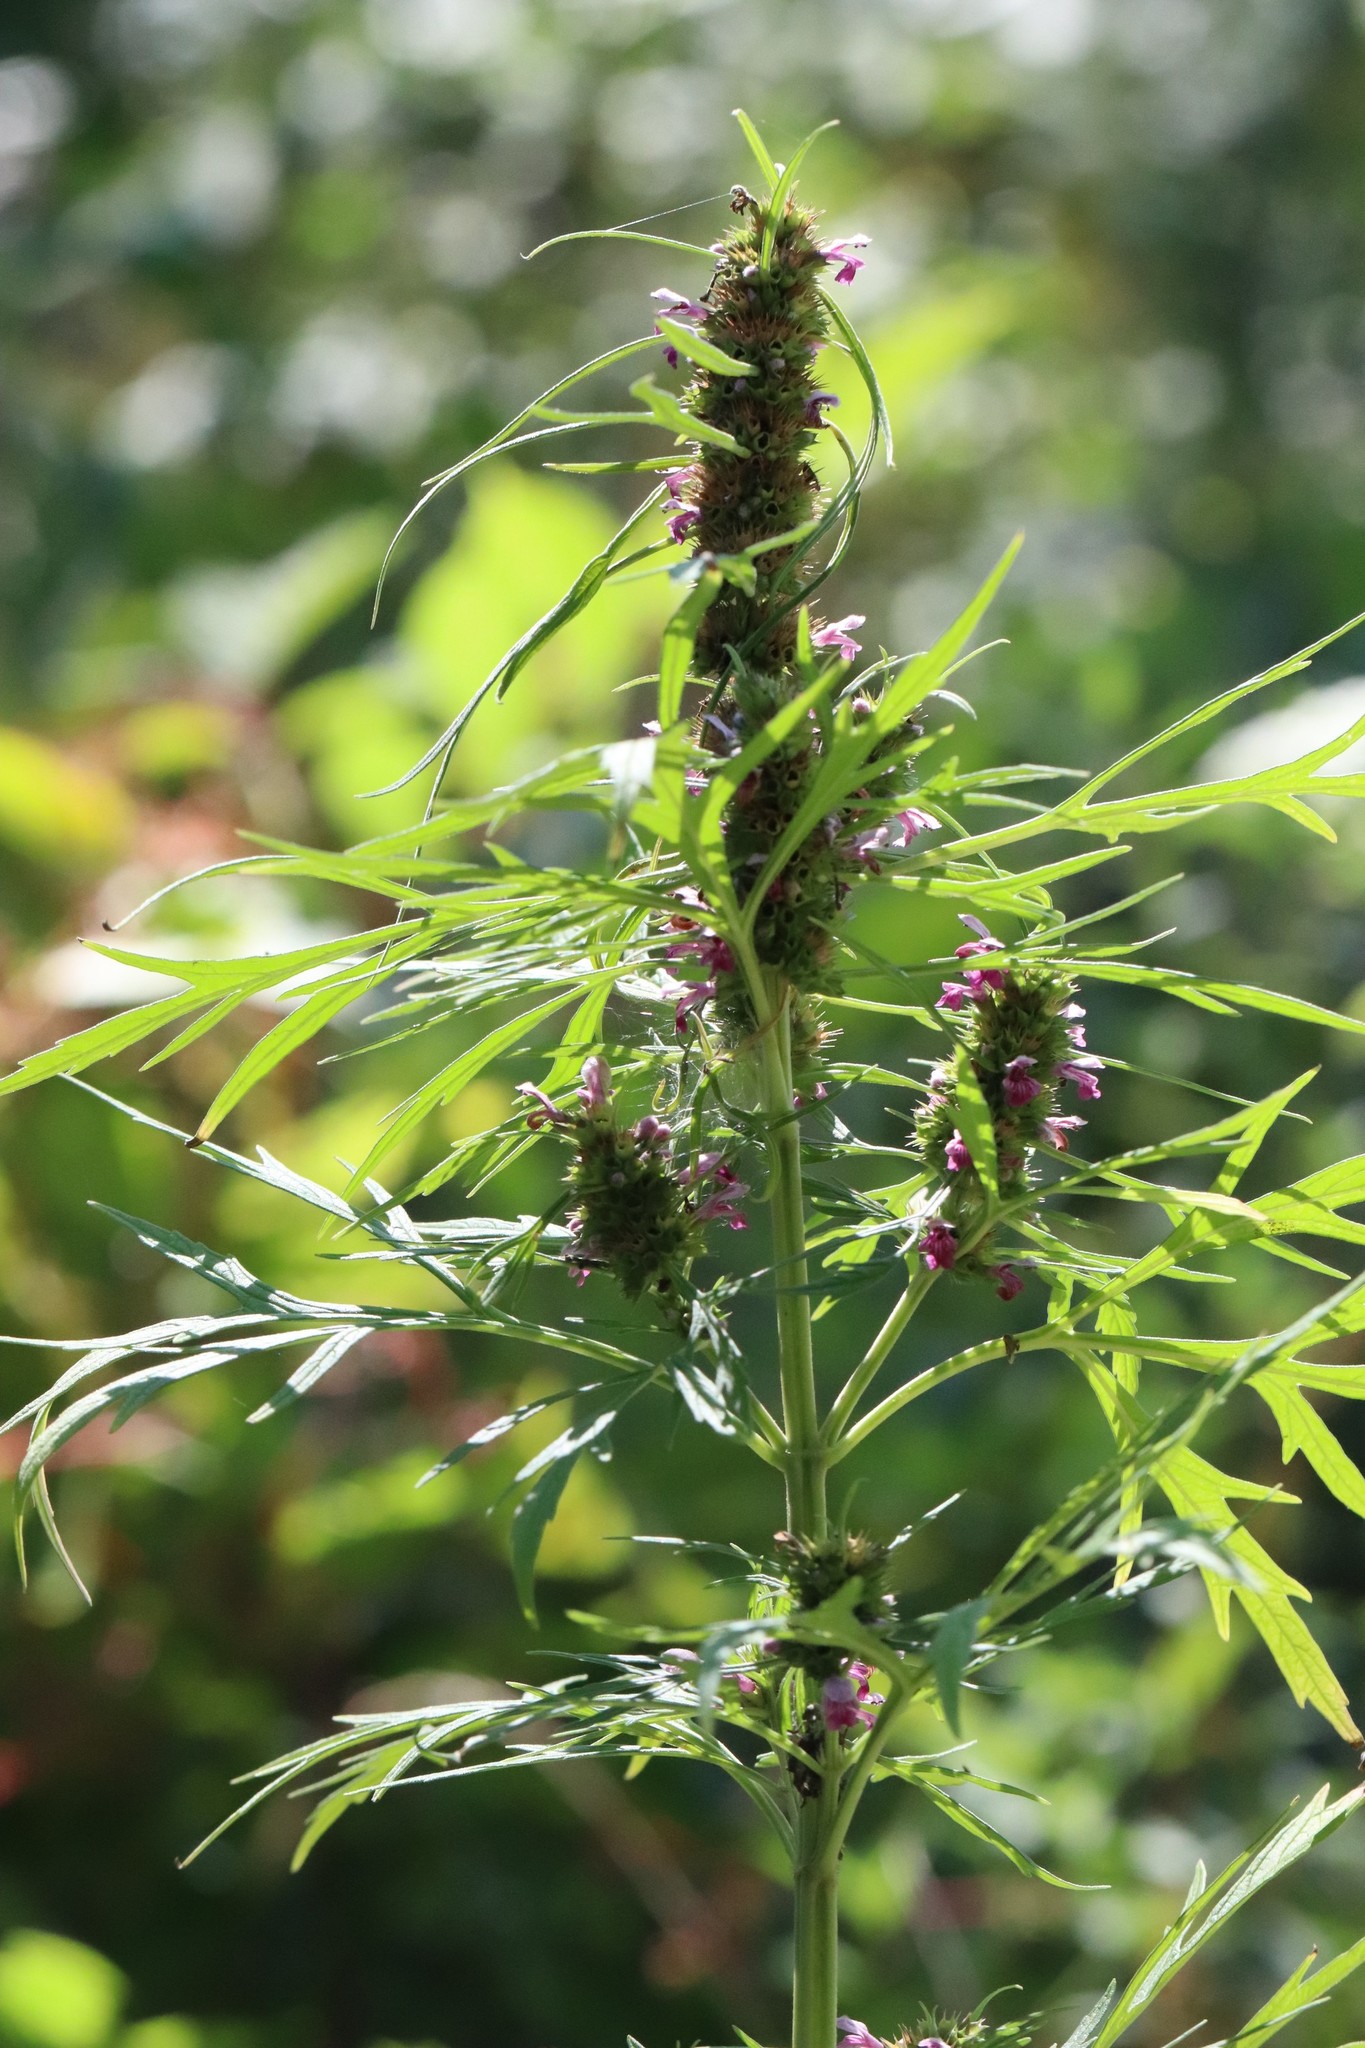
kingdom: Plantae
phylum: Tracheophyta
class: Magnoliopsida
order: Lamiales
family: Lamiaceae
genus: Leonurus
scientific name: Leonurus japonicus
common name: Honeyweed
